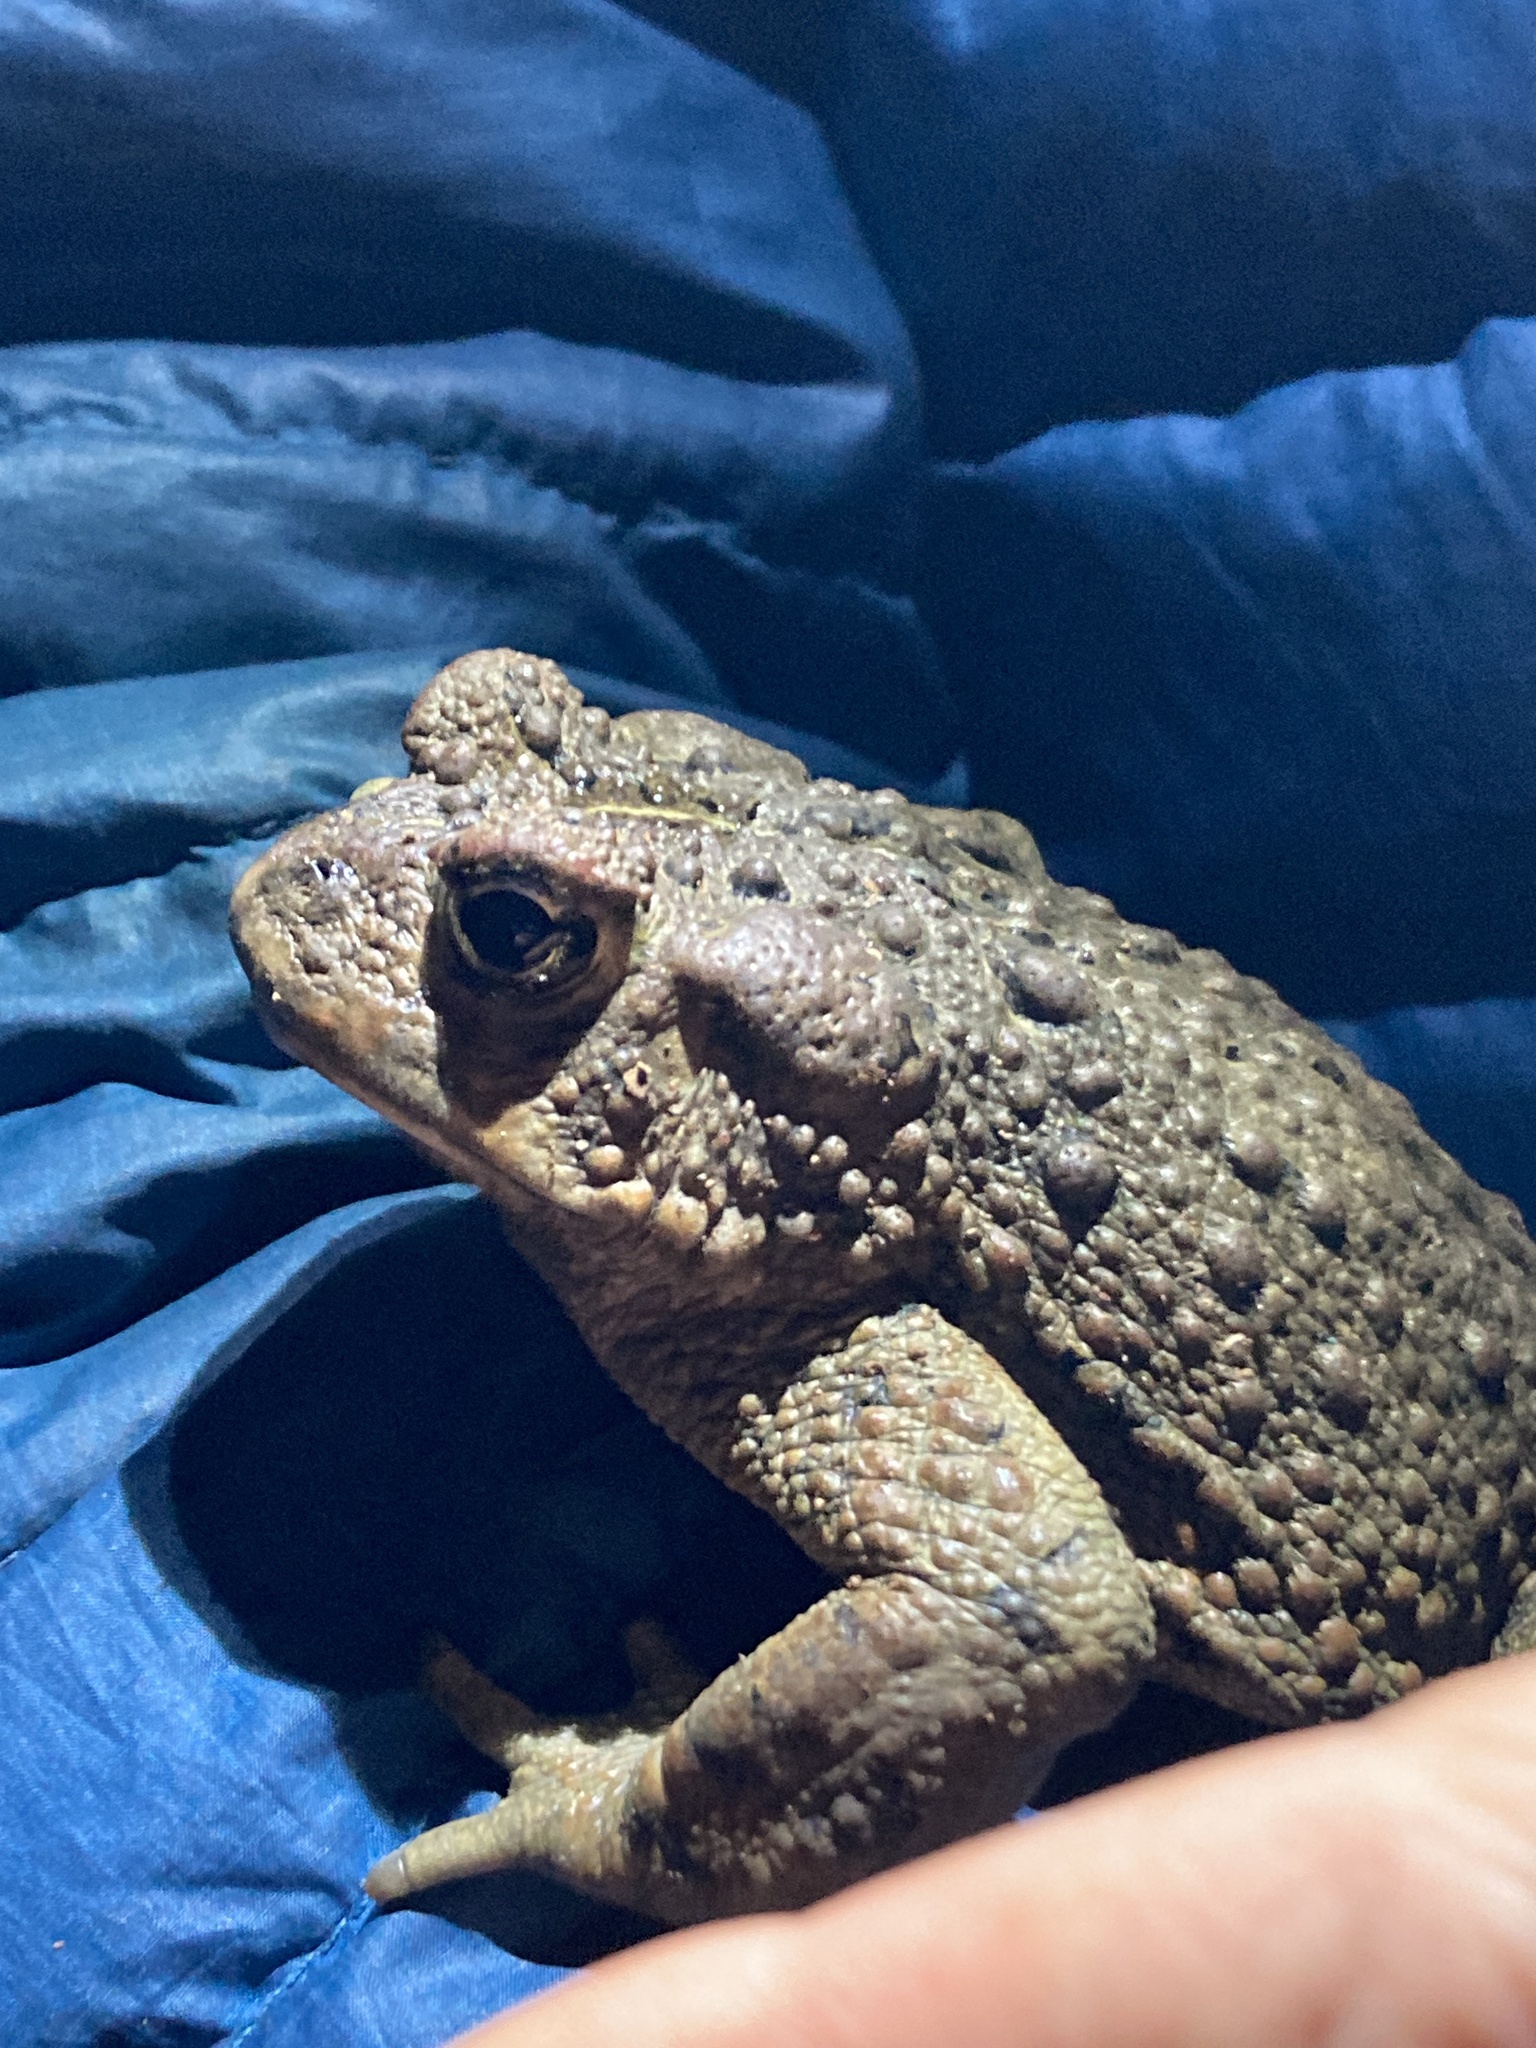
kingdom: Animalia
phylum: Chordata
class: Amphibia
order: Anura
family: Bufonidae
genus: Anaxyrus
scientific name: Anaxyrus boreas
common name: Western toad
